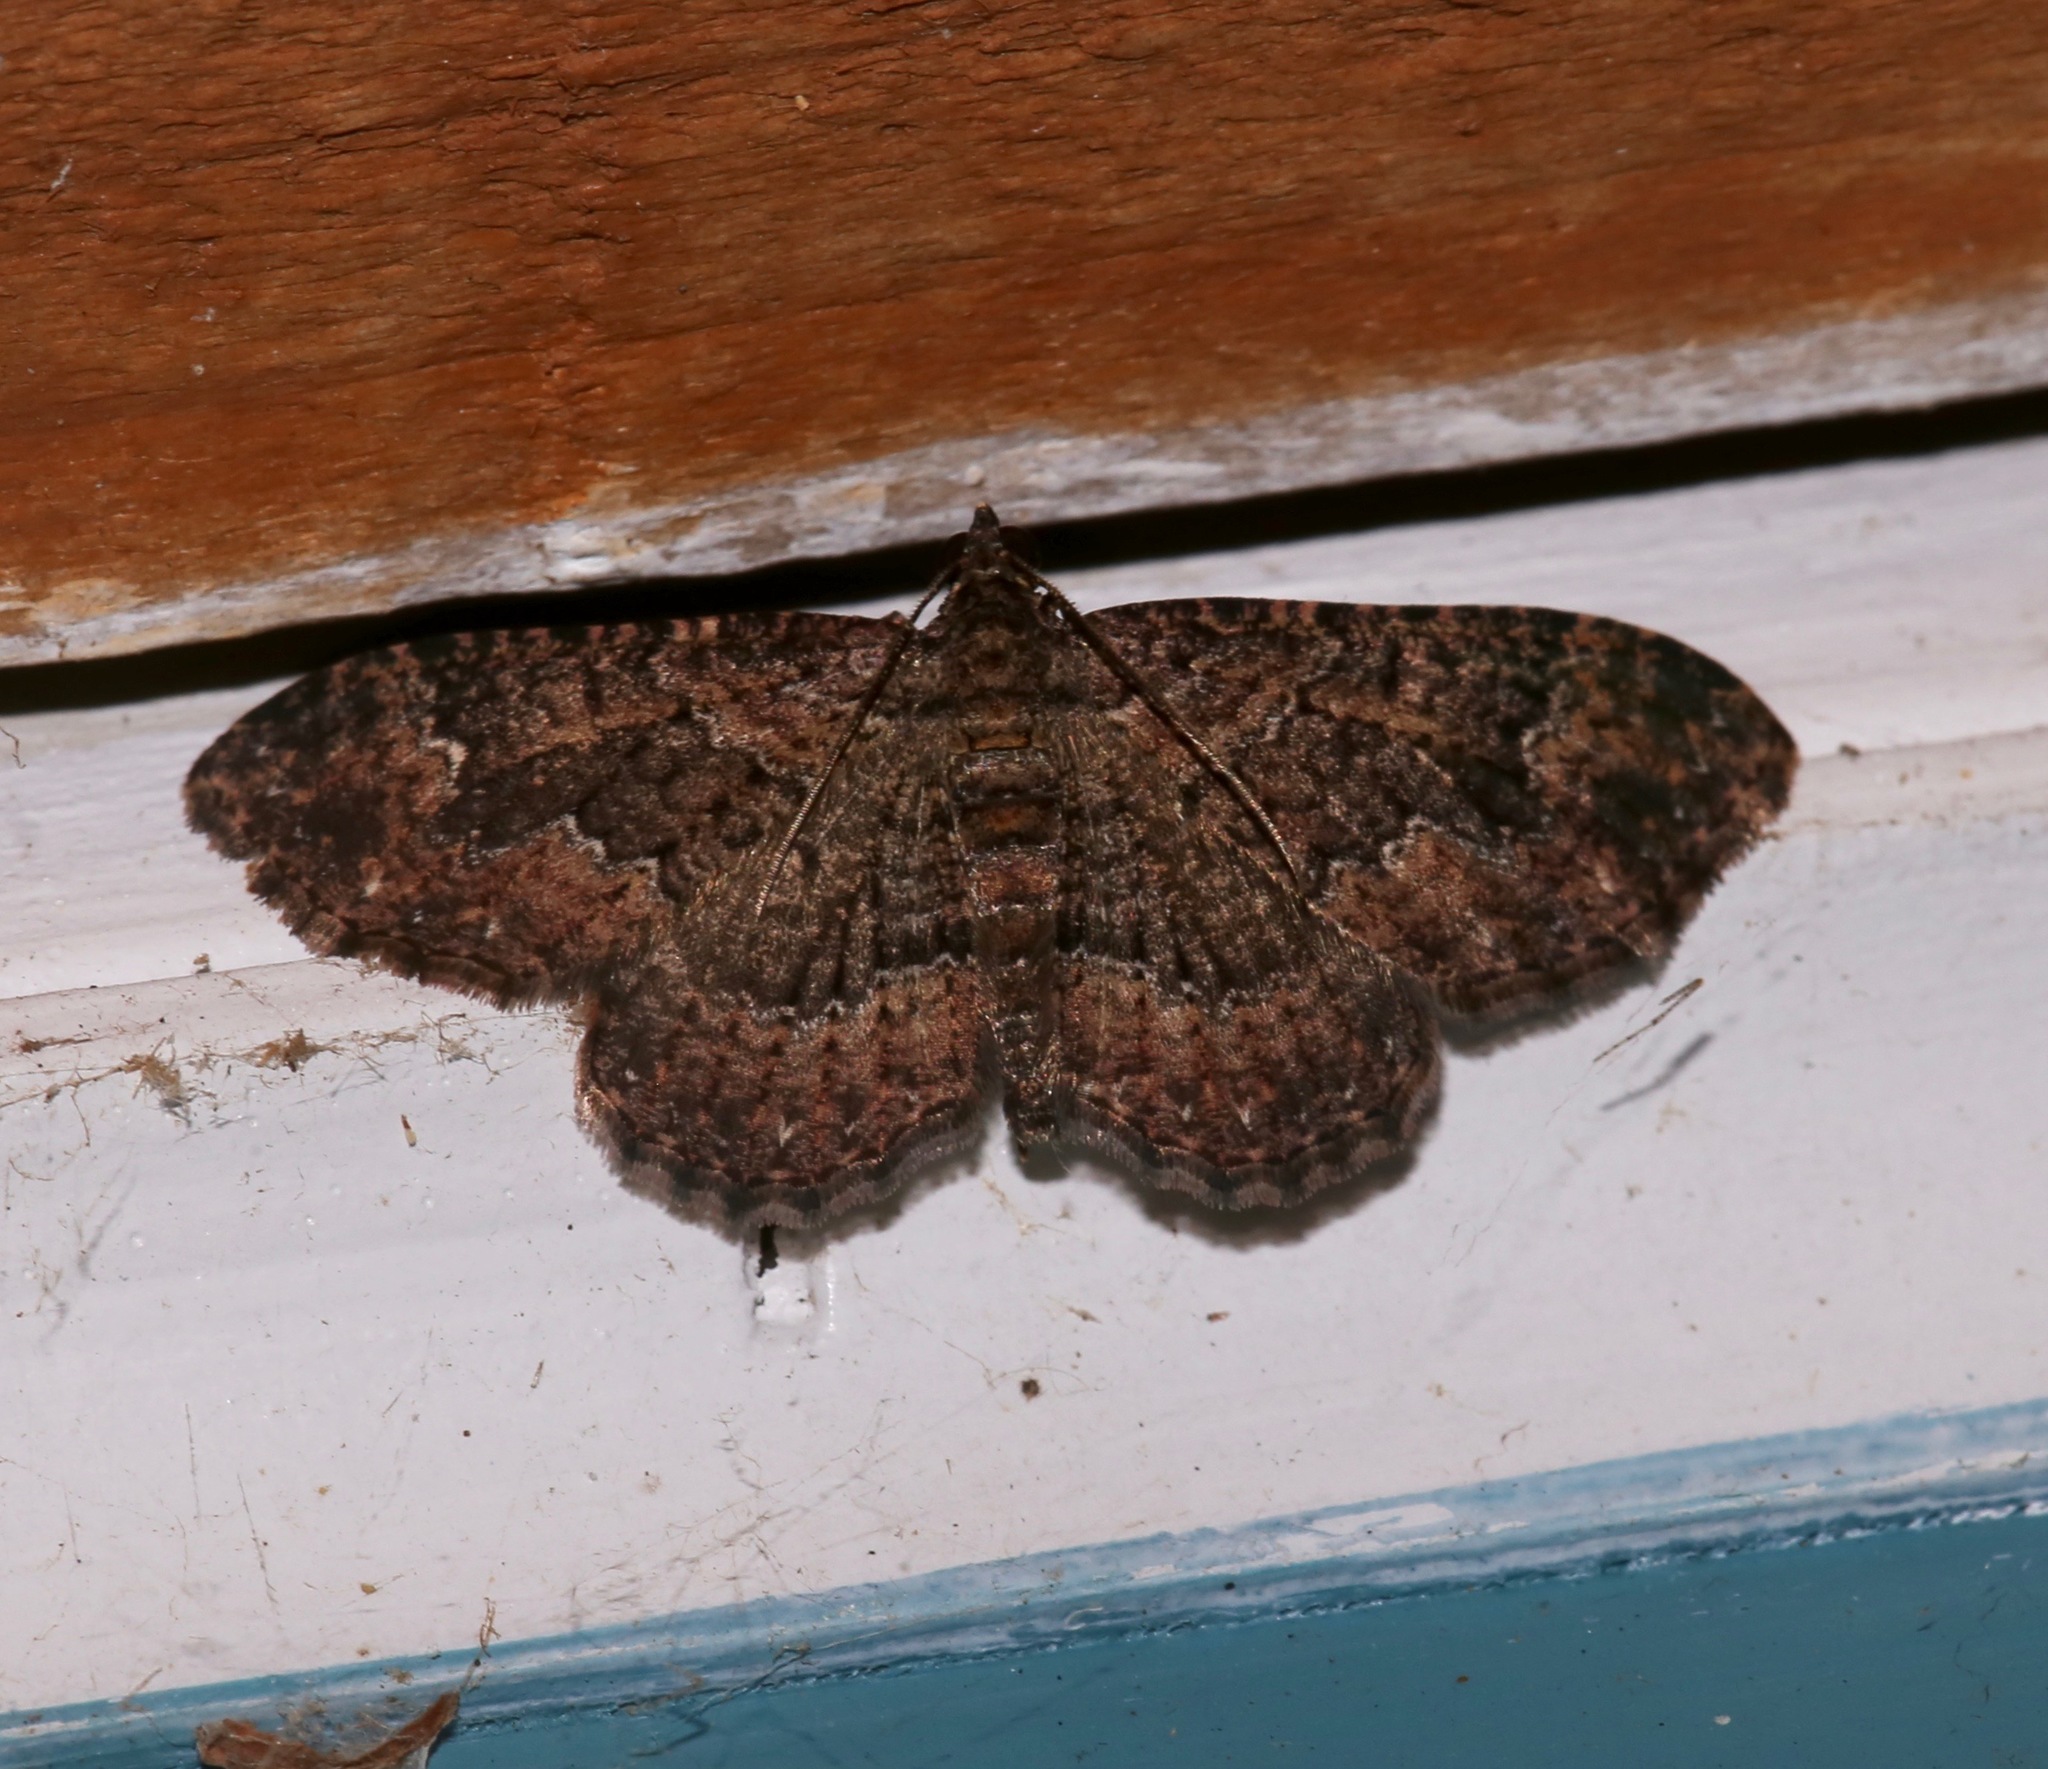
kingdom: Animalia
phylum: Arthropoda
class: Insecta
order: Lepidoptera
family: Geometridae
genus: Disclisioprocta
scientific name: Disclisioprocta stellata
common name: Somber carpet
